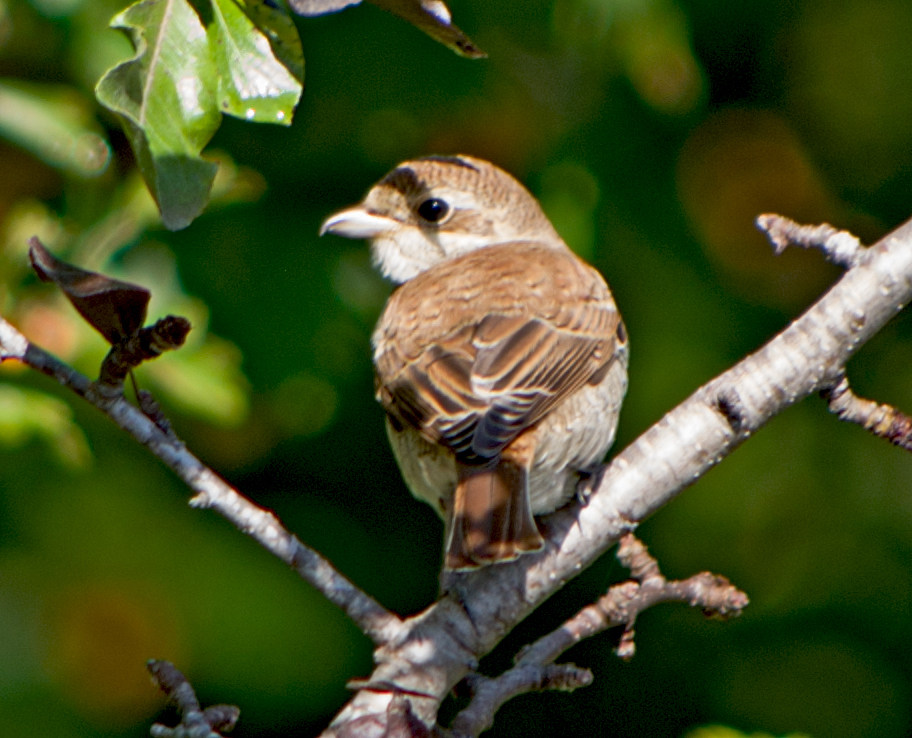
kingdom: Animalia
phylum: Chordata
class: Aves
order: Passeriformes
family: Laniidae
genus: Lanius
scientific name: Lanius collurio
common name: Red-backed shrike
